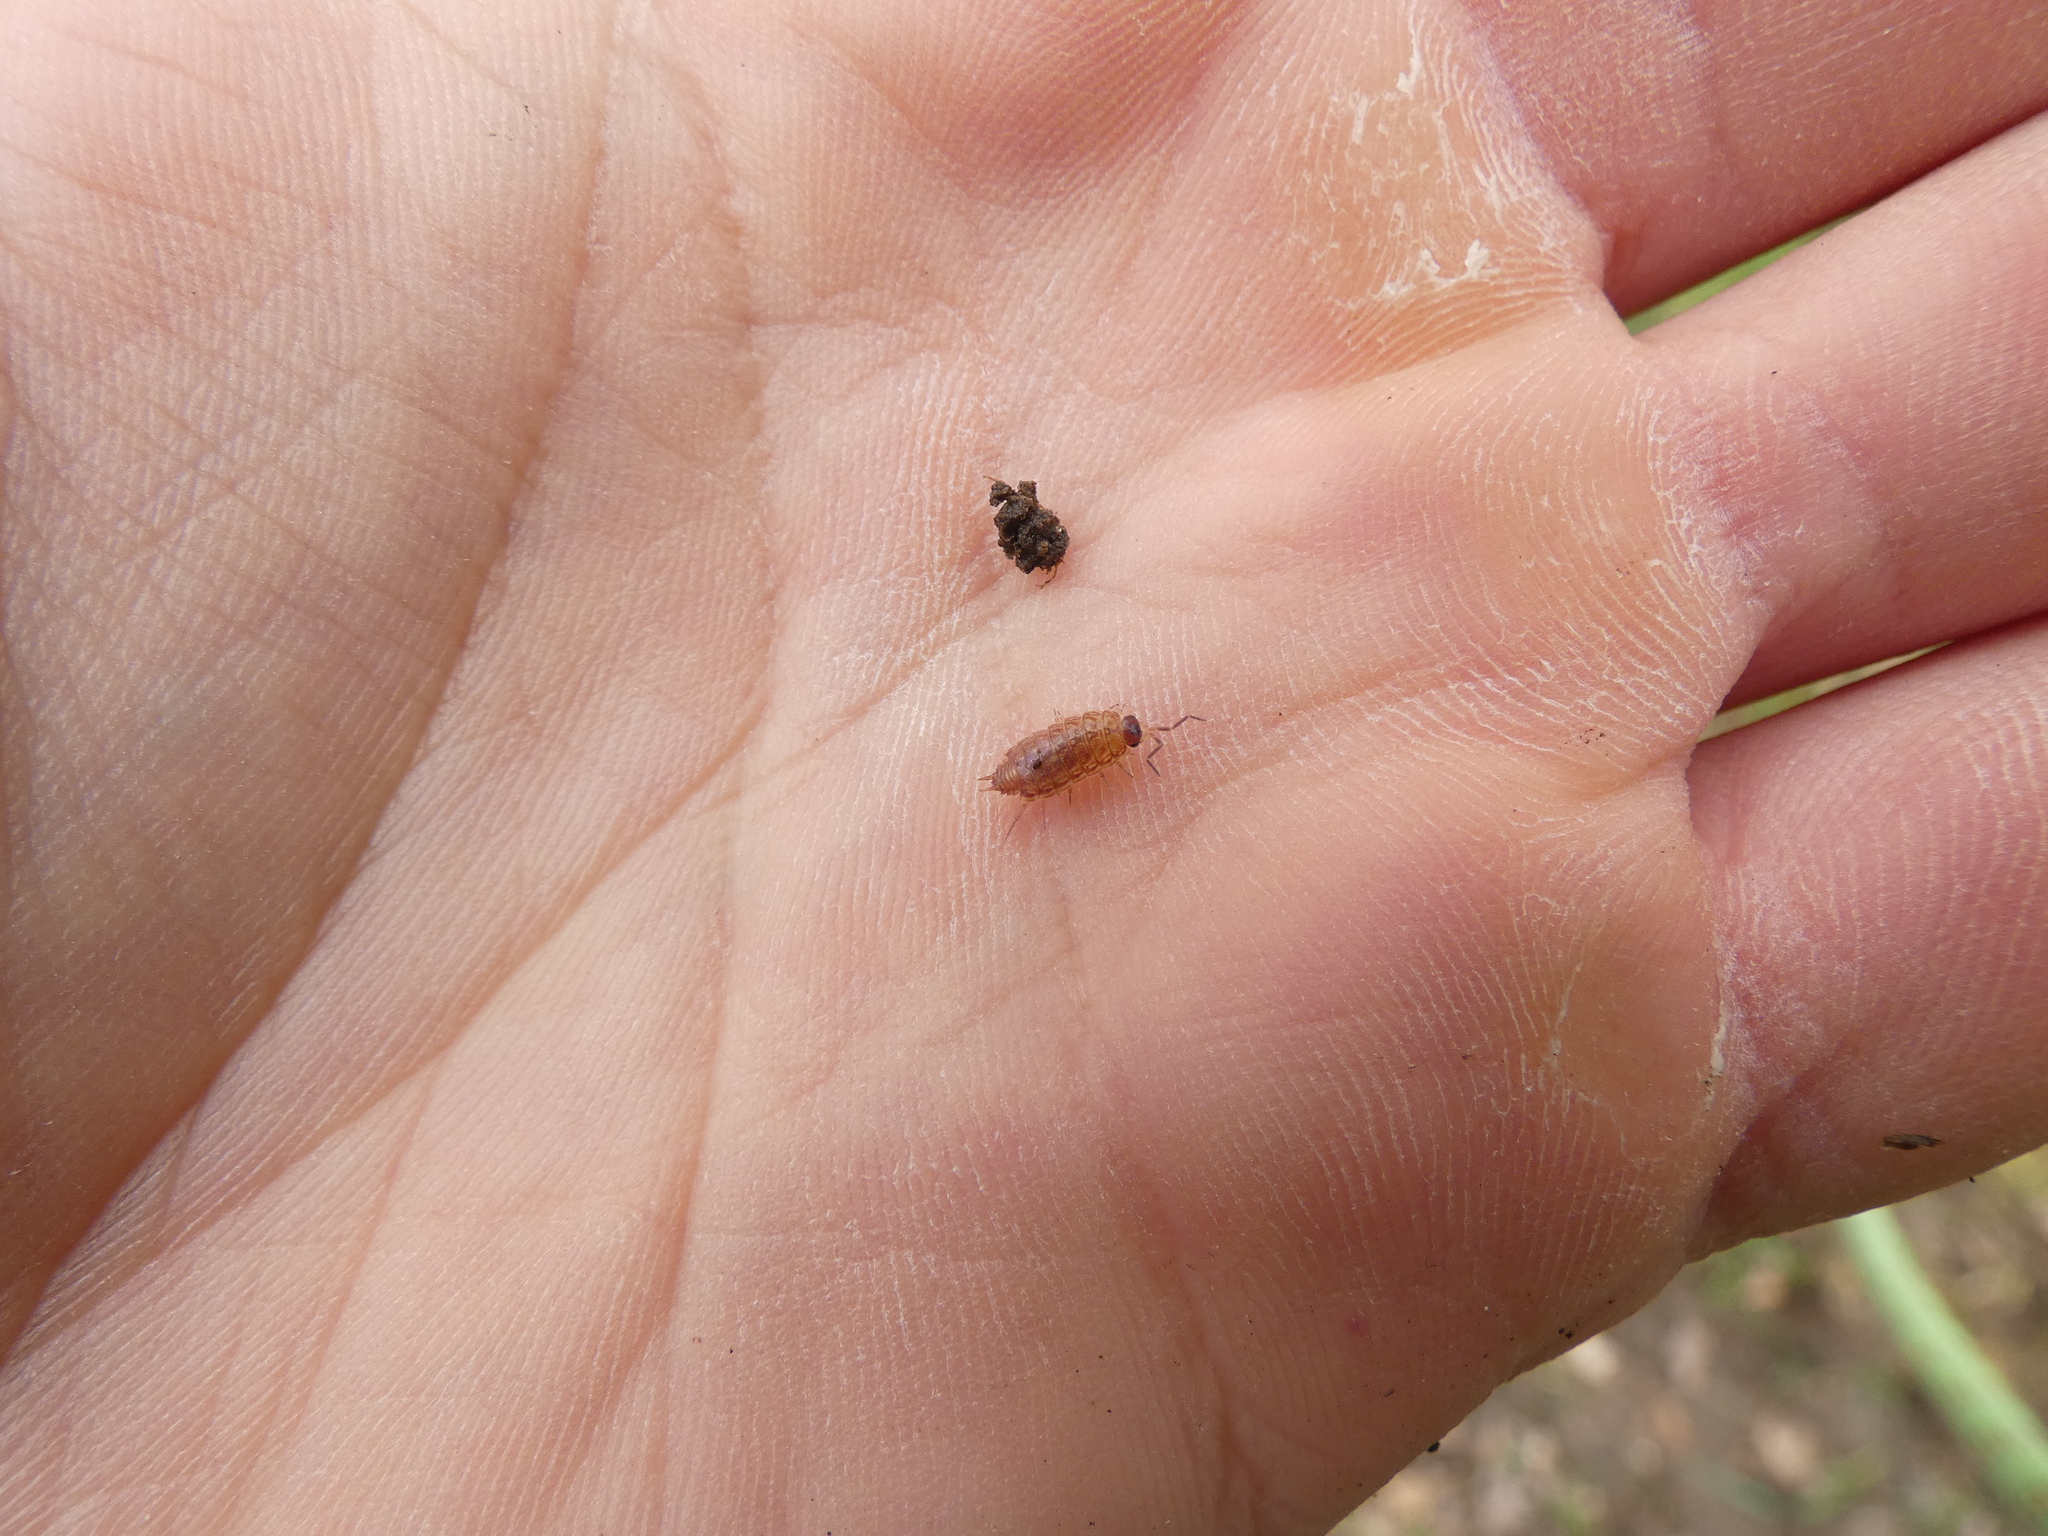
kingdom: Animalia
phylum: Arthropoda
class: Malacostraca
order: Isopoda
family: Philosciidae
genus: Philoscia
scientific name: Philoscia muscorum
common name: Common striped woodlouse
